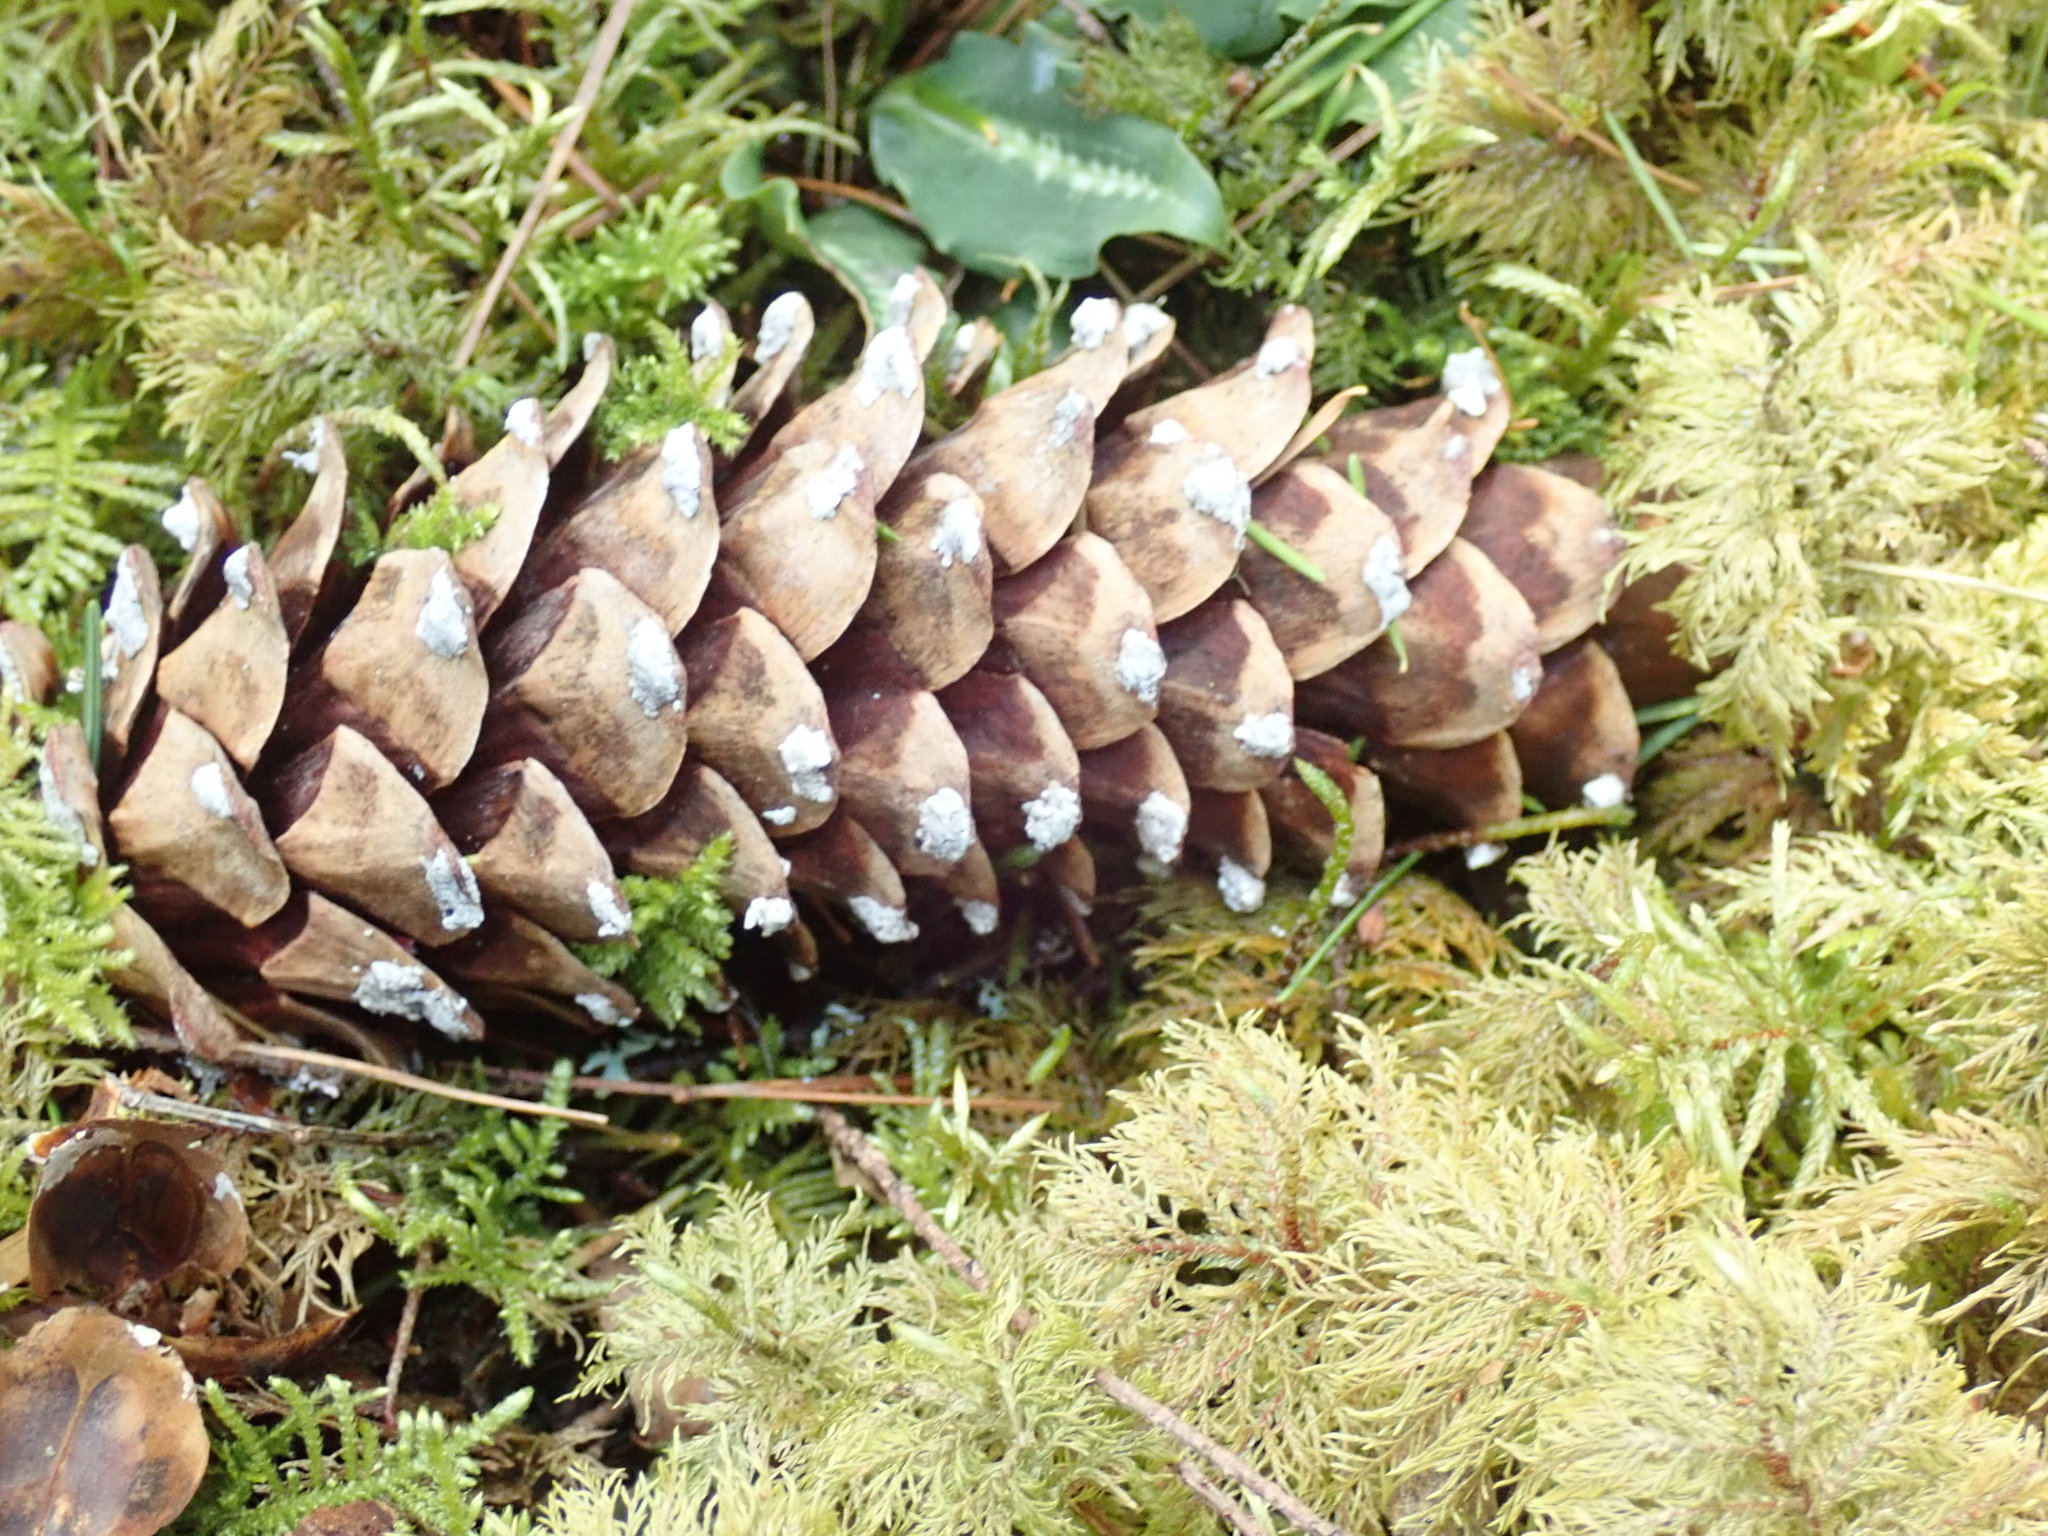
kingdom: Plantae
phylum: Tracheophyta
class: Pinopsida
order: Pinales
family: Pinaceae
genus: Pinus
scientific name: Pinus monticola
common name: Western white pine
